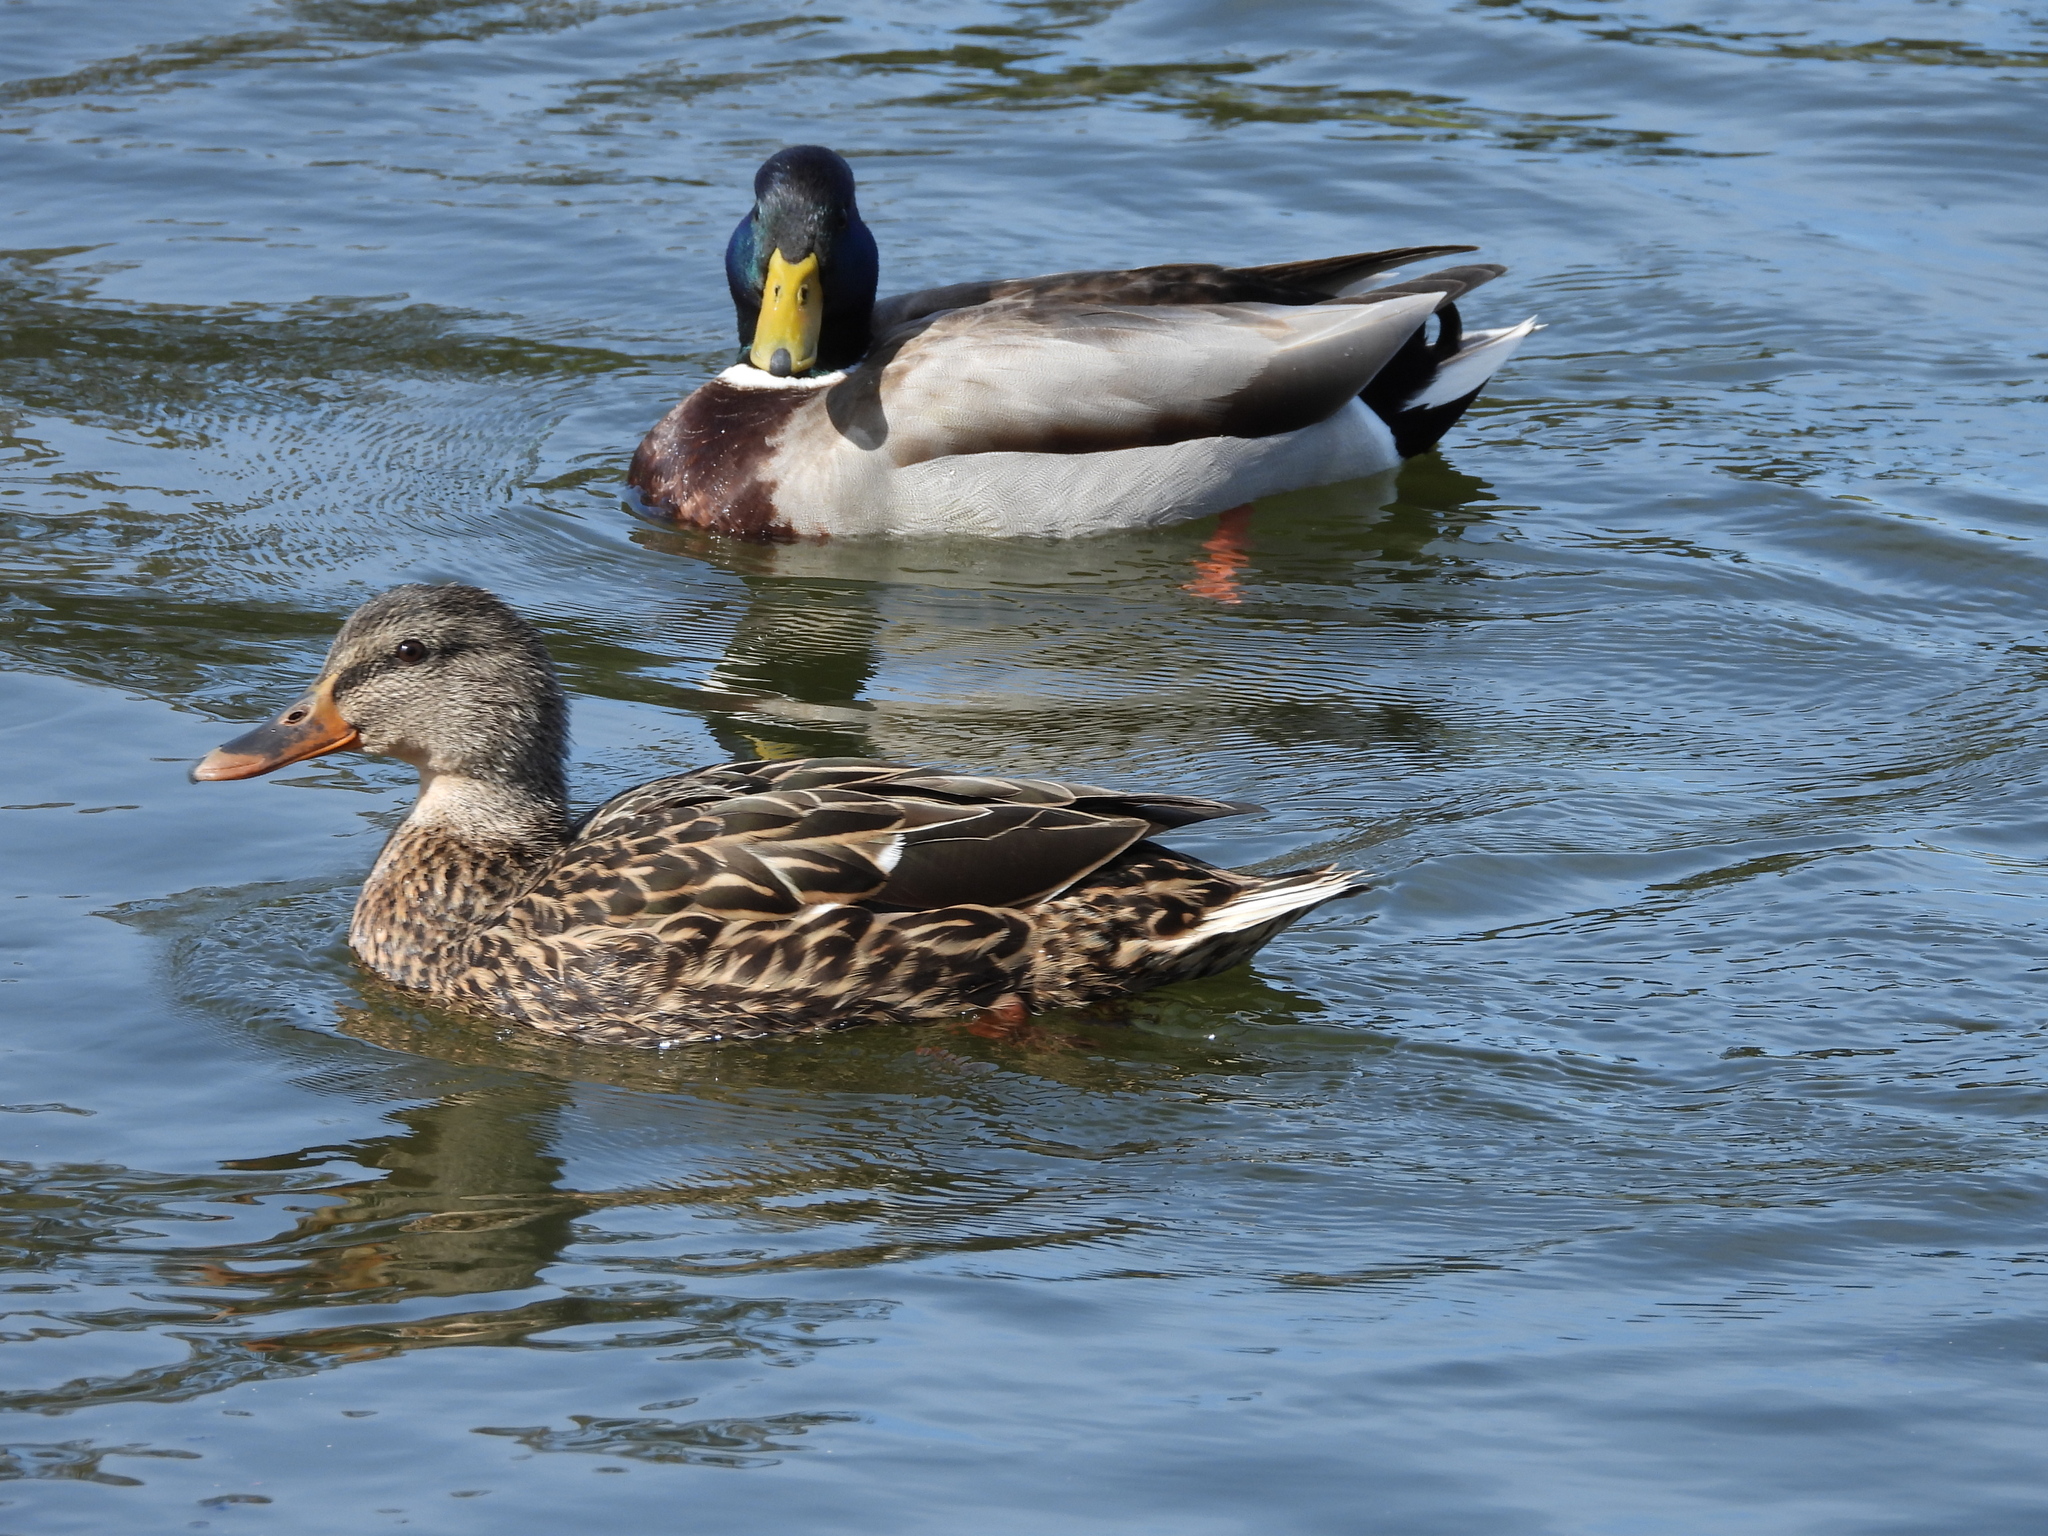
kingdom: Animalia
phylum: Chordata
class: Aves
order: Anseriformes
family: Anatidae
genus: Anas
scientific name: Anas platyrhynchos
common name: Mallard
